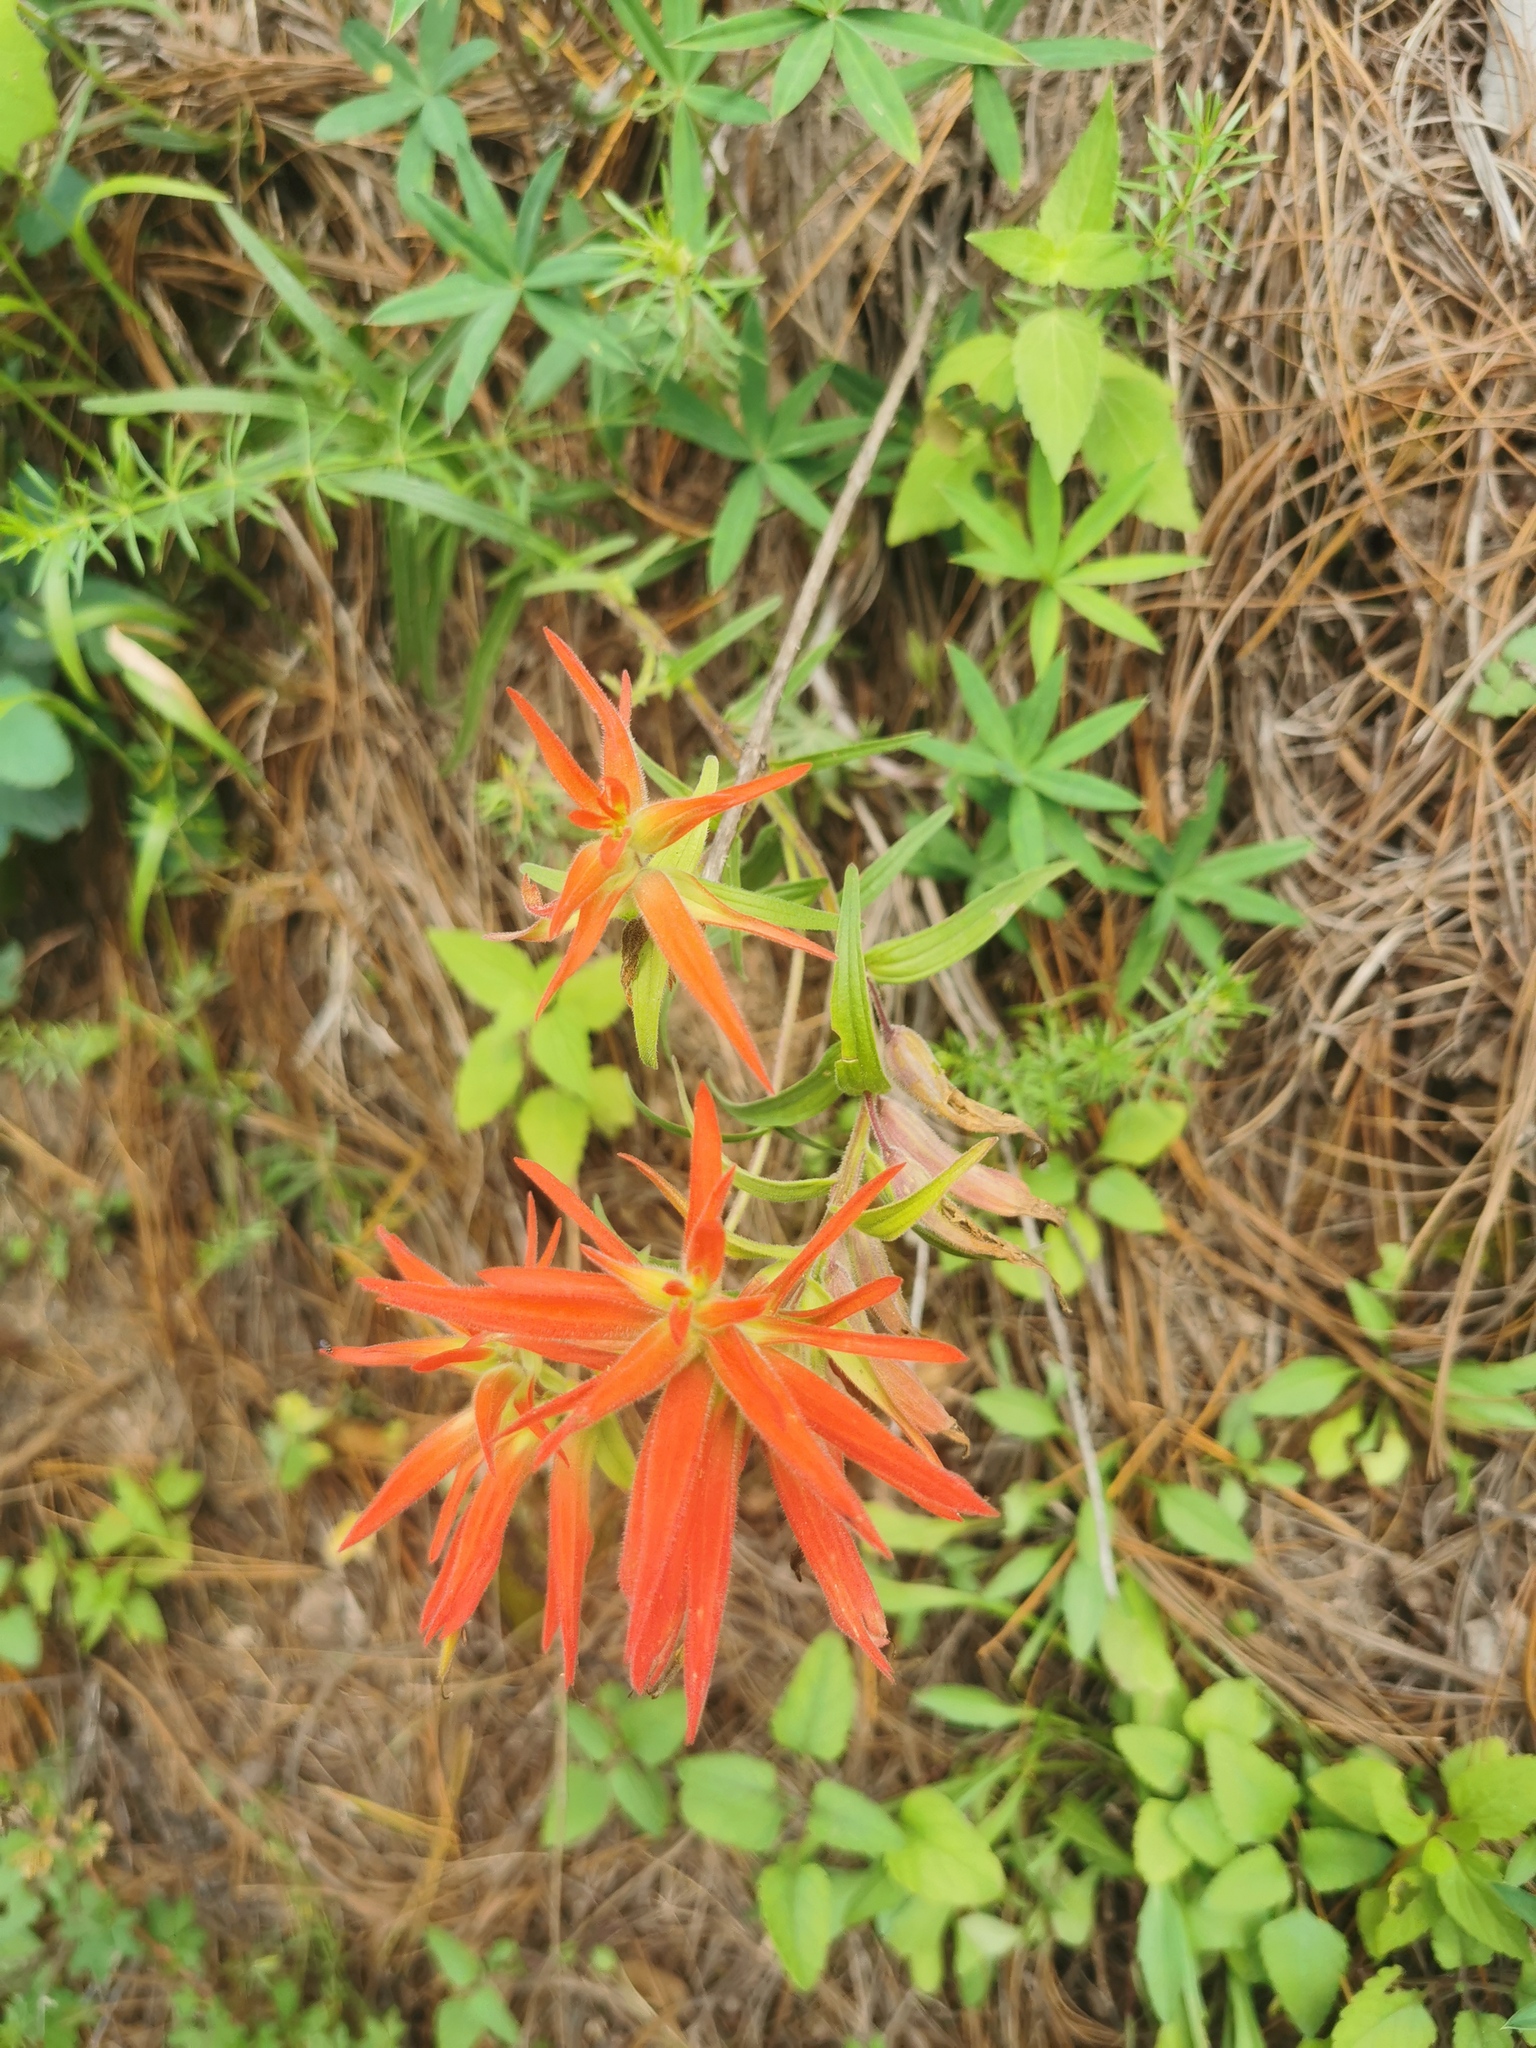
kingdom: Plantae
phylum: Tracheophyta
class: Magnoliopsida
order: Lamiales
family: Orobanchaceae
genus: Castilleja
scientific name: Castilleja tenuiflora
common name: Santa catalina indian paintbrush
